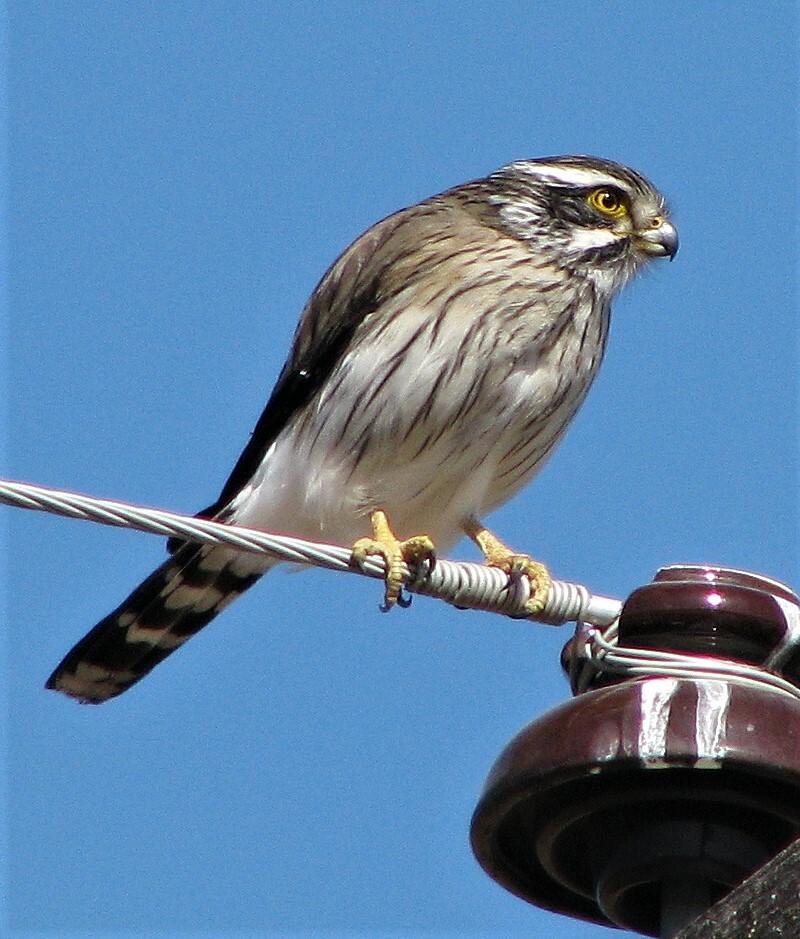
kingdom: Animalia
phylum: Chordata
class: Aves
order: Falconiformes
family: Falconidae
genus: Spiziapteryx
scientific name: Spiziapteryx circumcincta
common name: Spot-winged falconet
